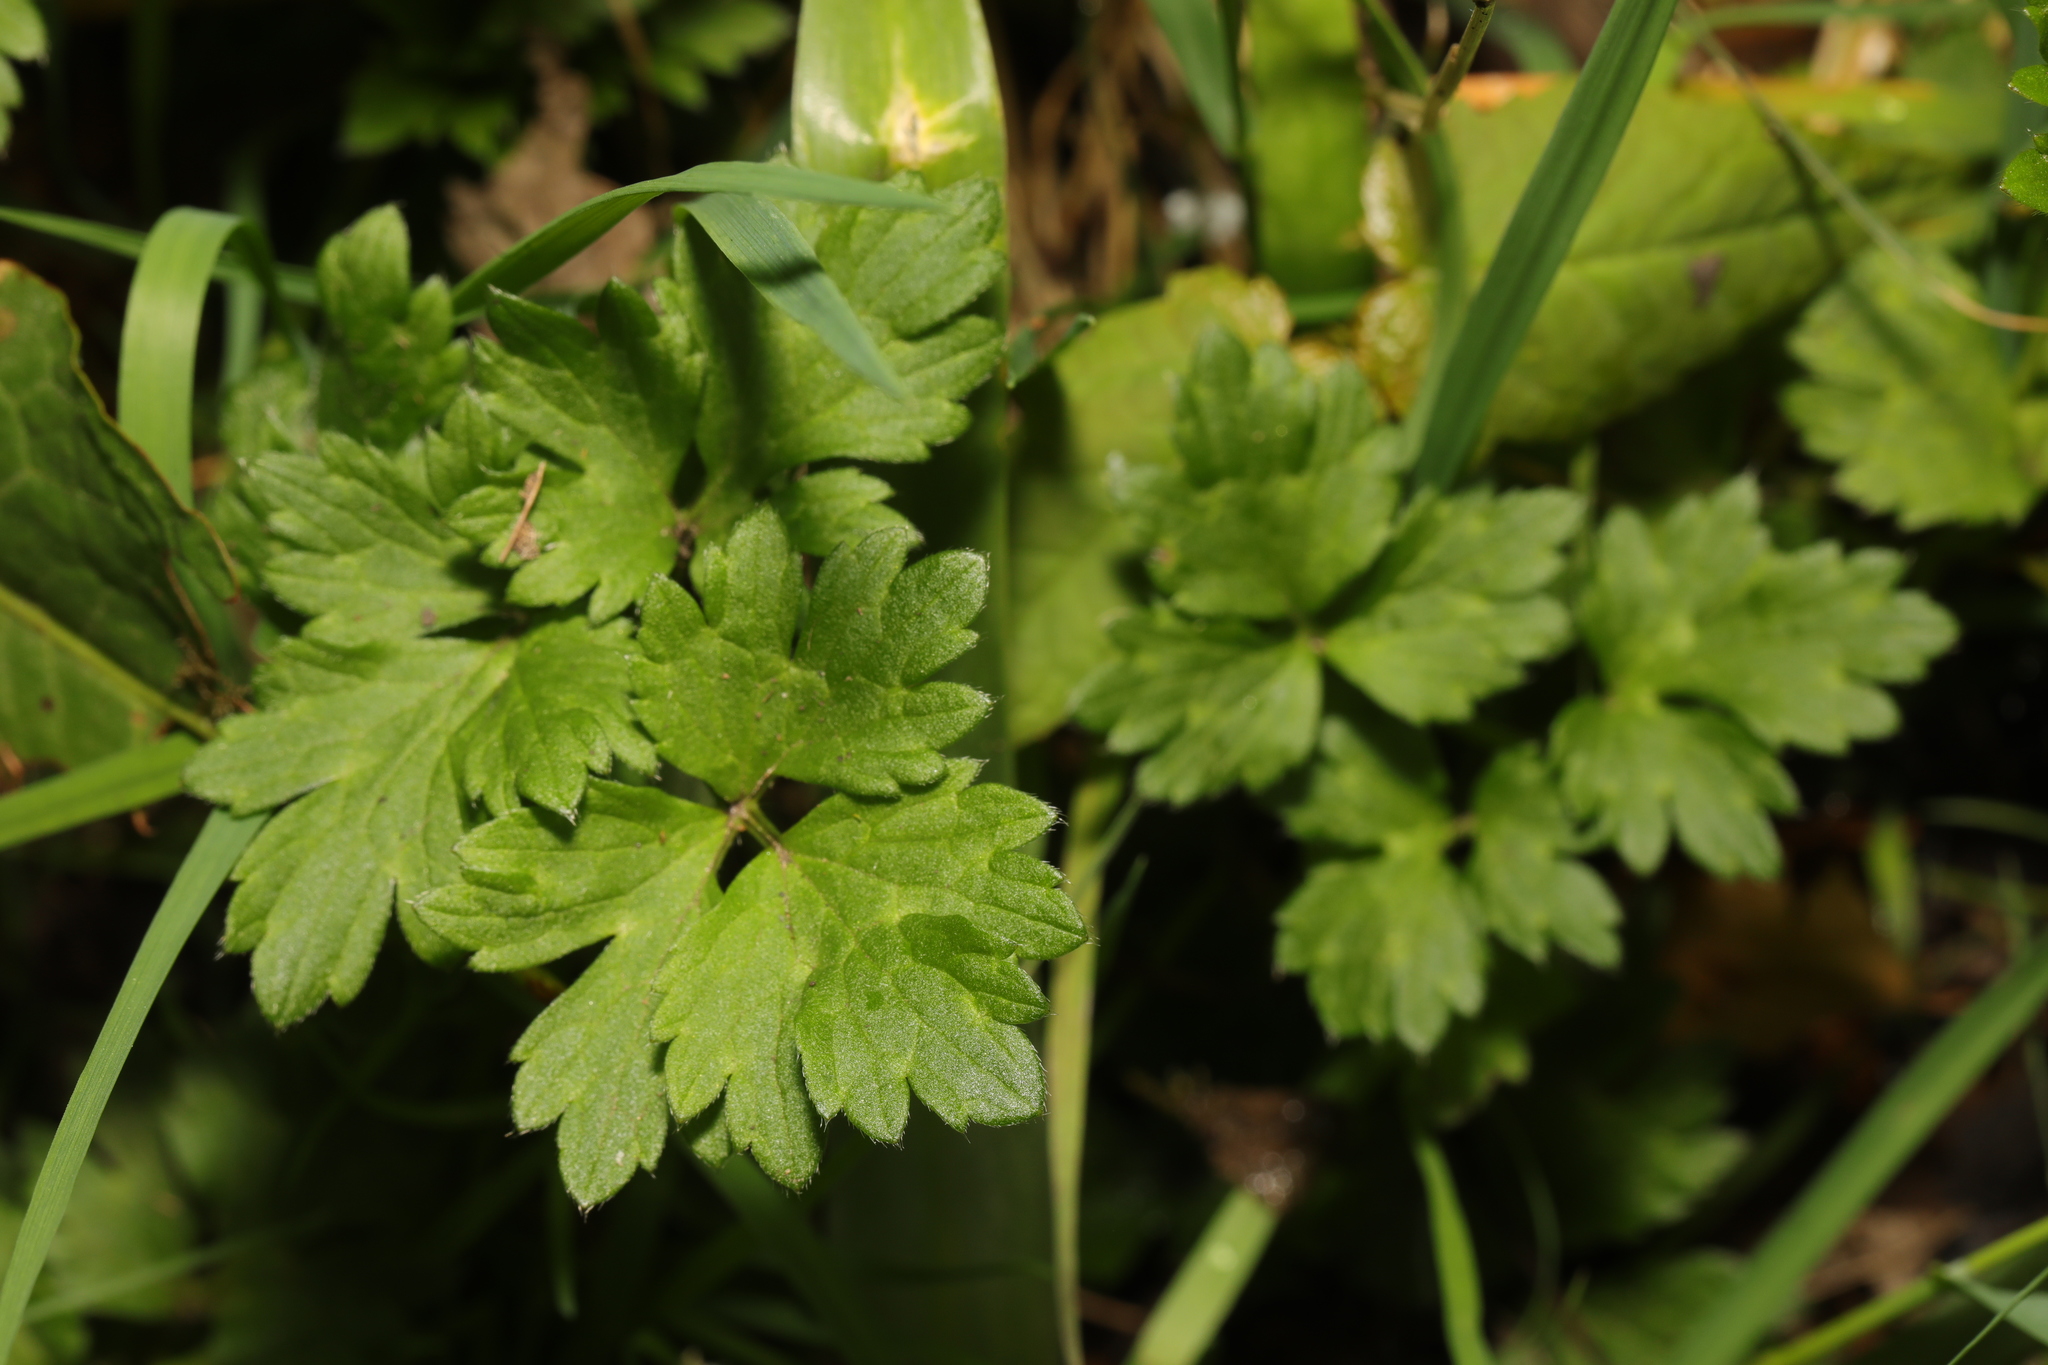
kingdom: Plantae
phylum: Tracheophyta
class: Magnoliopsida
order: Ranunculales
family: Ranunculaceae
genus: Ranunculus
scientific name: Ranunculus repens
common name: Creeping buttercup
